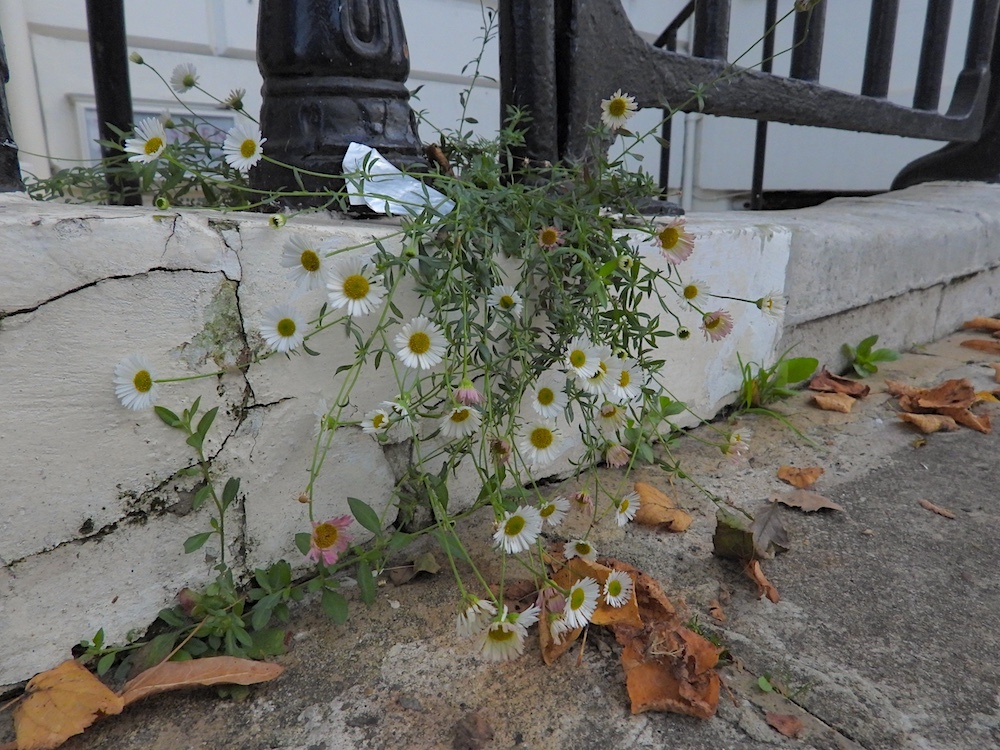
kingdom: Plantae
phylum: Tracheophyta
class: Magnoliopsida
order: Asterales
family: Asteraceae
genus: Erigeron
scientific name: Erigeron karvinskianus
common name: Mexican fleabane
